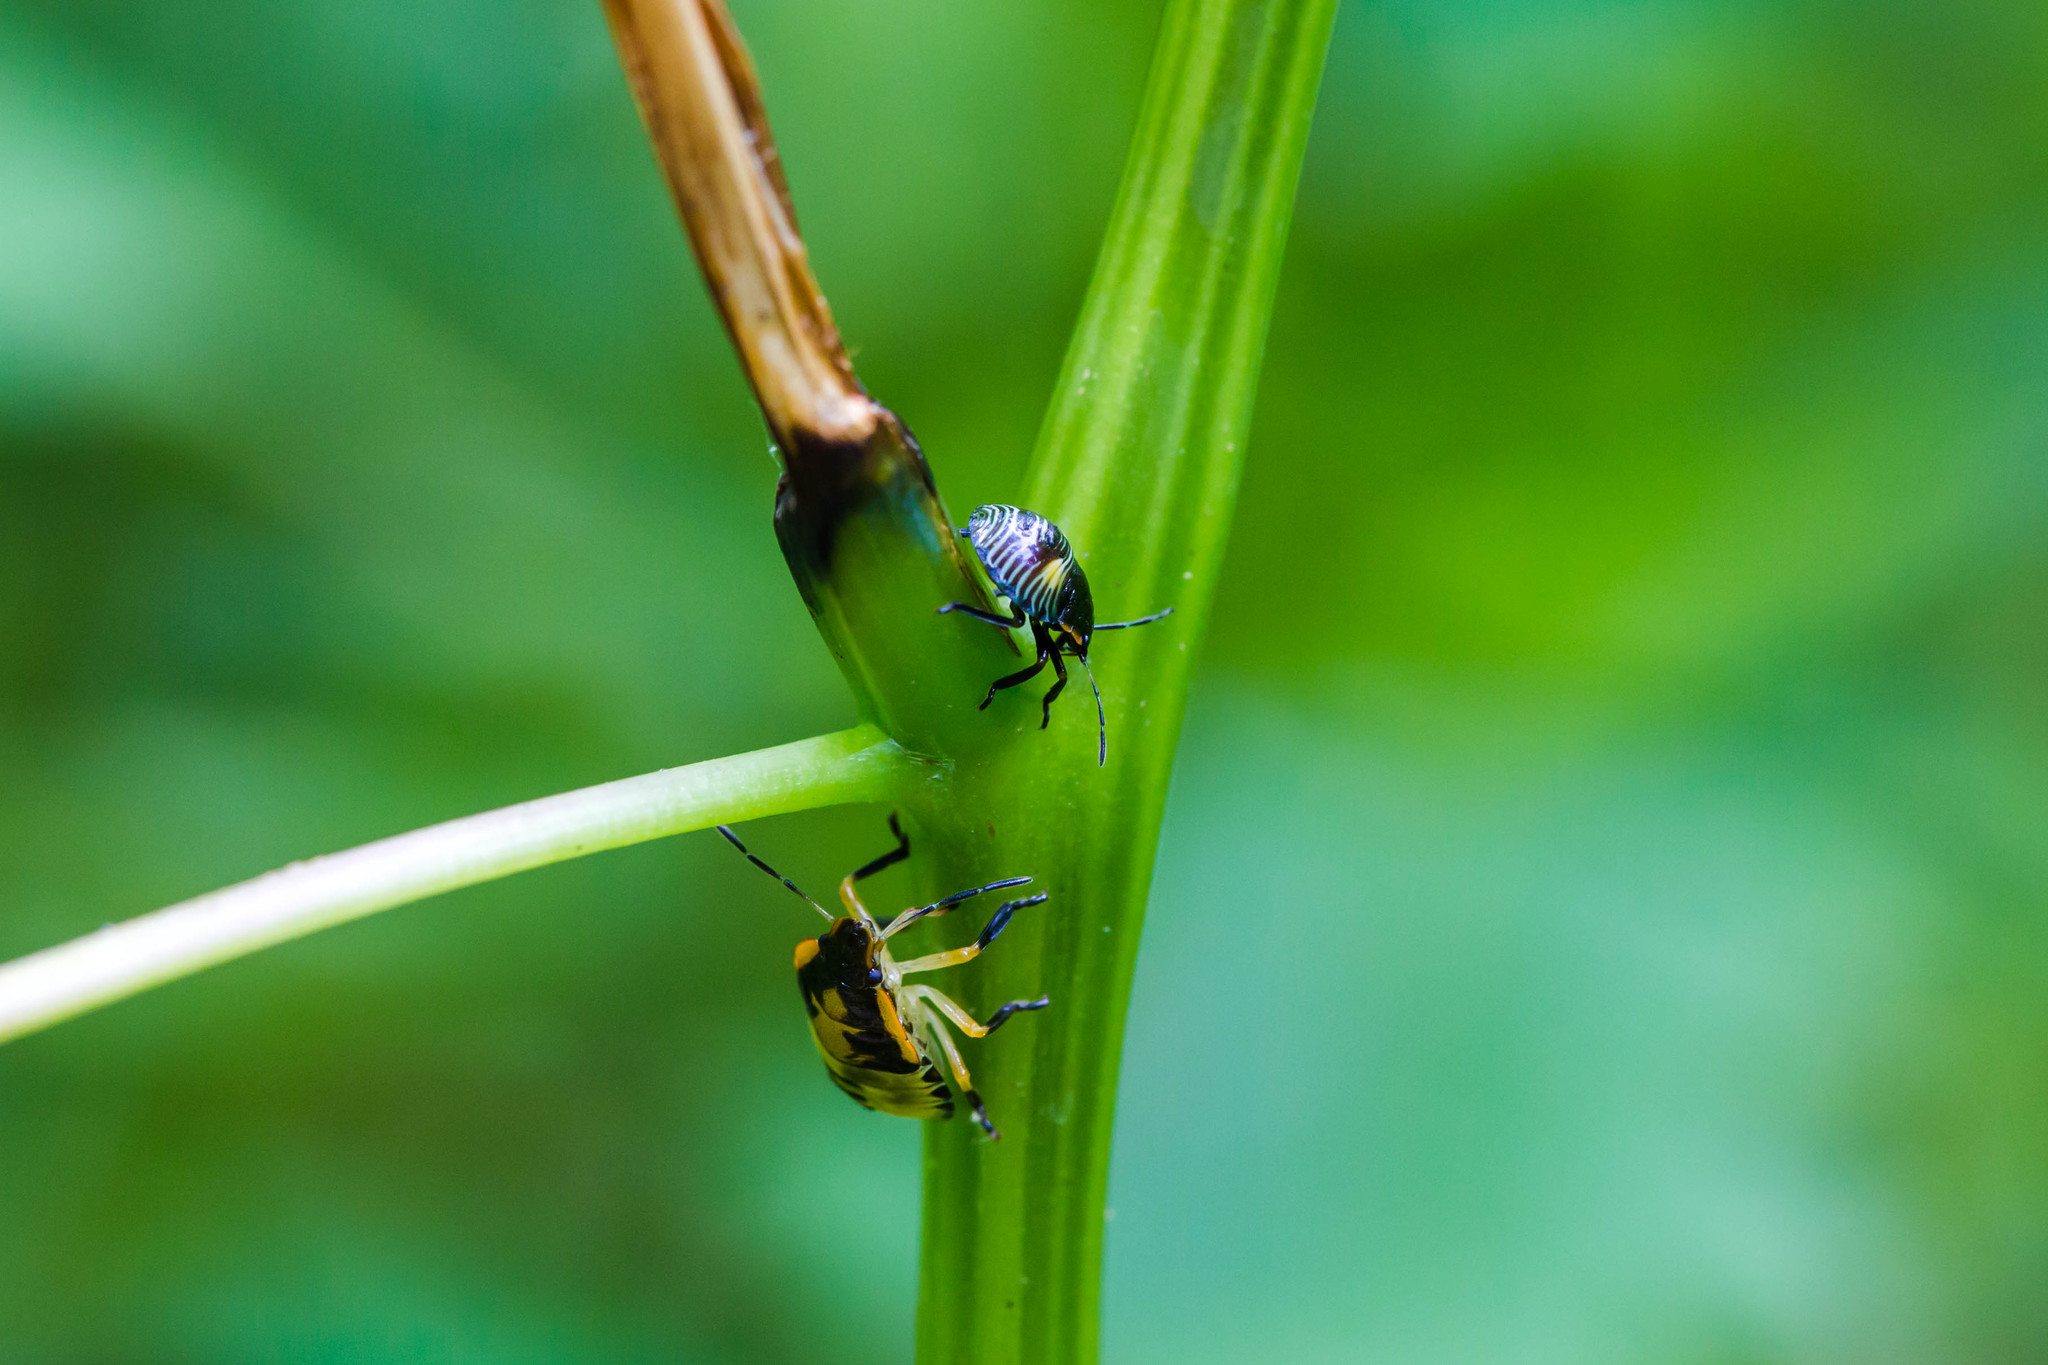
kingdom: Animalia
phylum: Arthropoda
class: Insecta
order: Hemiptera
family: Pentatomidae
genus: Chinavia
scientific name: Chinavia hilaris
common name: Green stink bug
